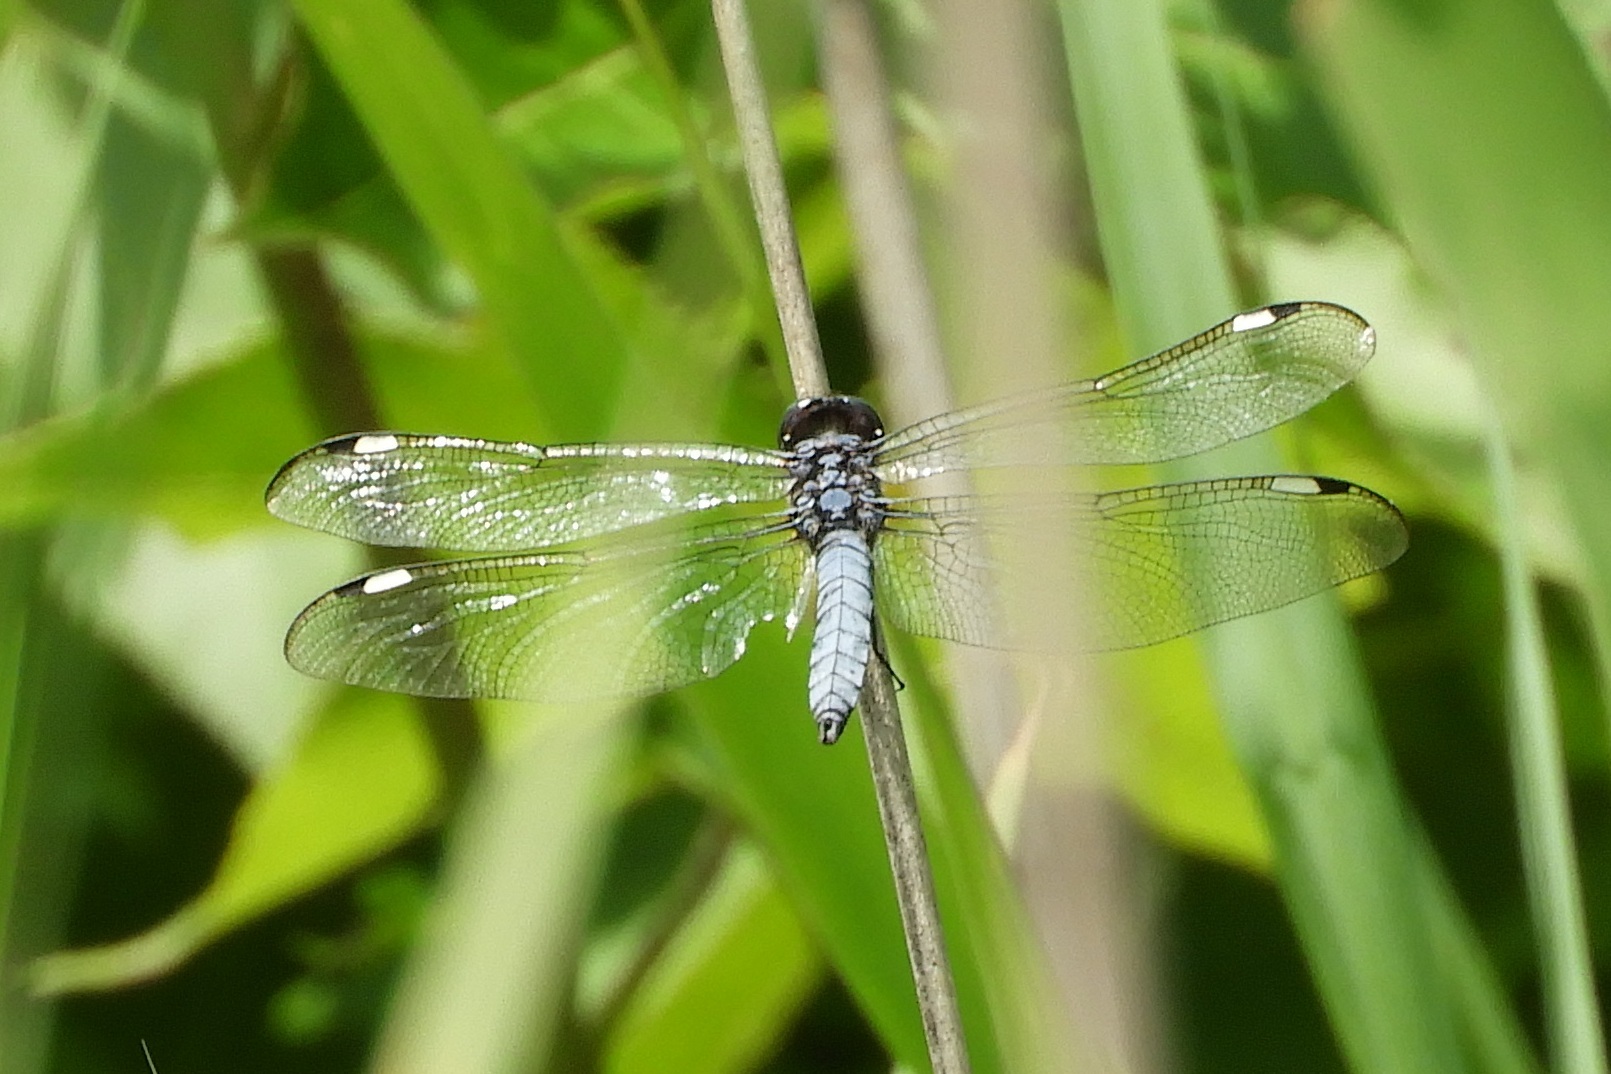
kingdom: Animalia
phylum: Arthropoda
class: Insecta
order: Odonata
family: Libellulidae
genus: Libellula
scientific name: Libellula cyanea
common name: Spangled skimmer
